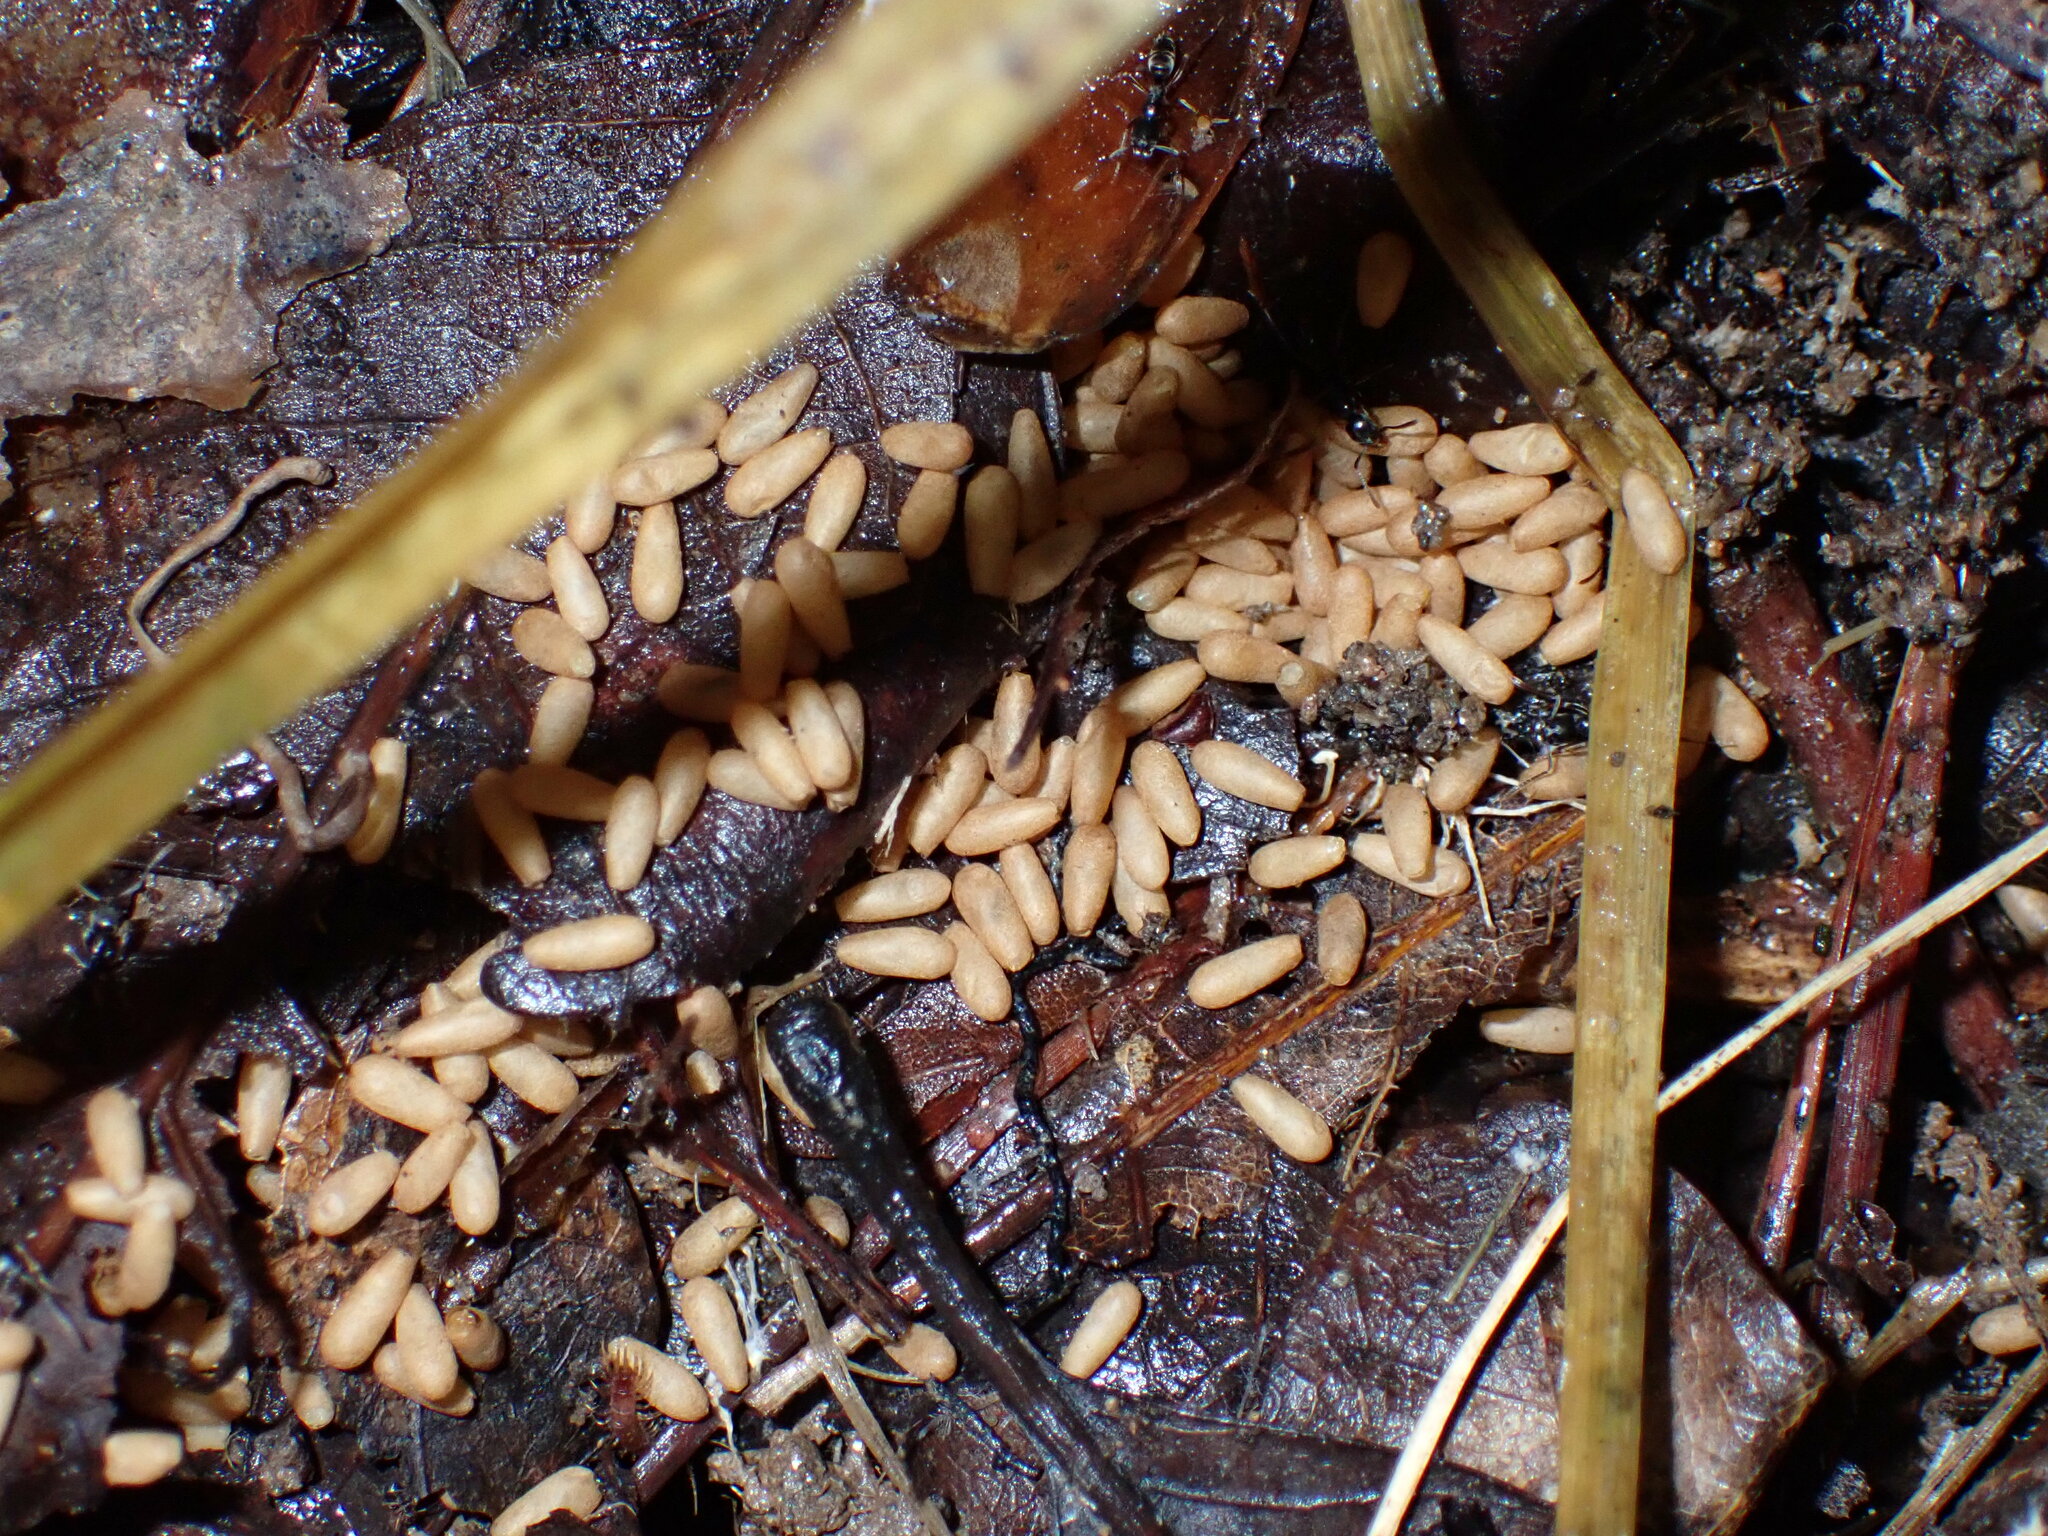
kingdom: Animalia
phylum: Arthropoda
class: Insecta
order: Hymenoptera
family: Formicidae
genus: Pachycondyla
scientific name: Pachycondyla chinensis
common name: Asian needle ant
